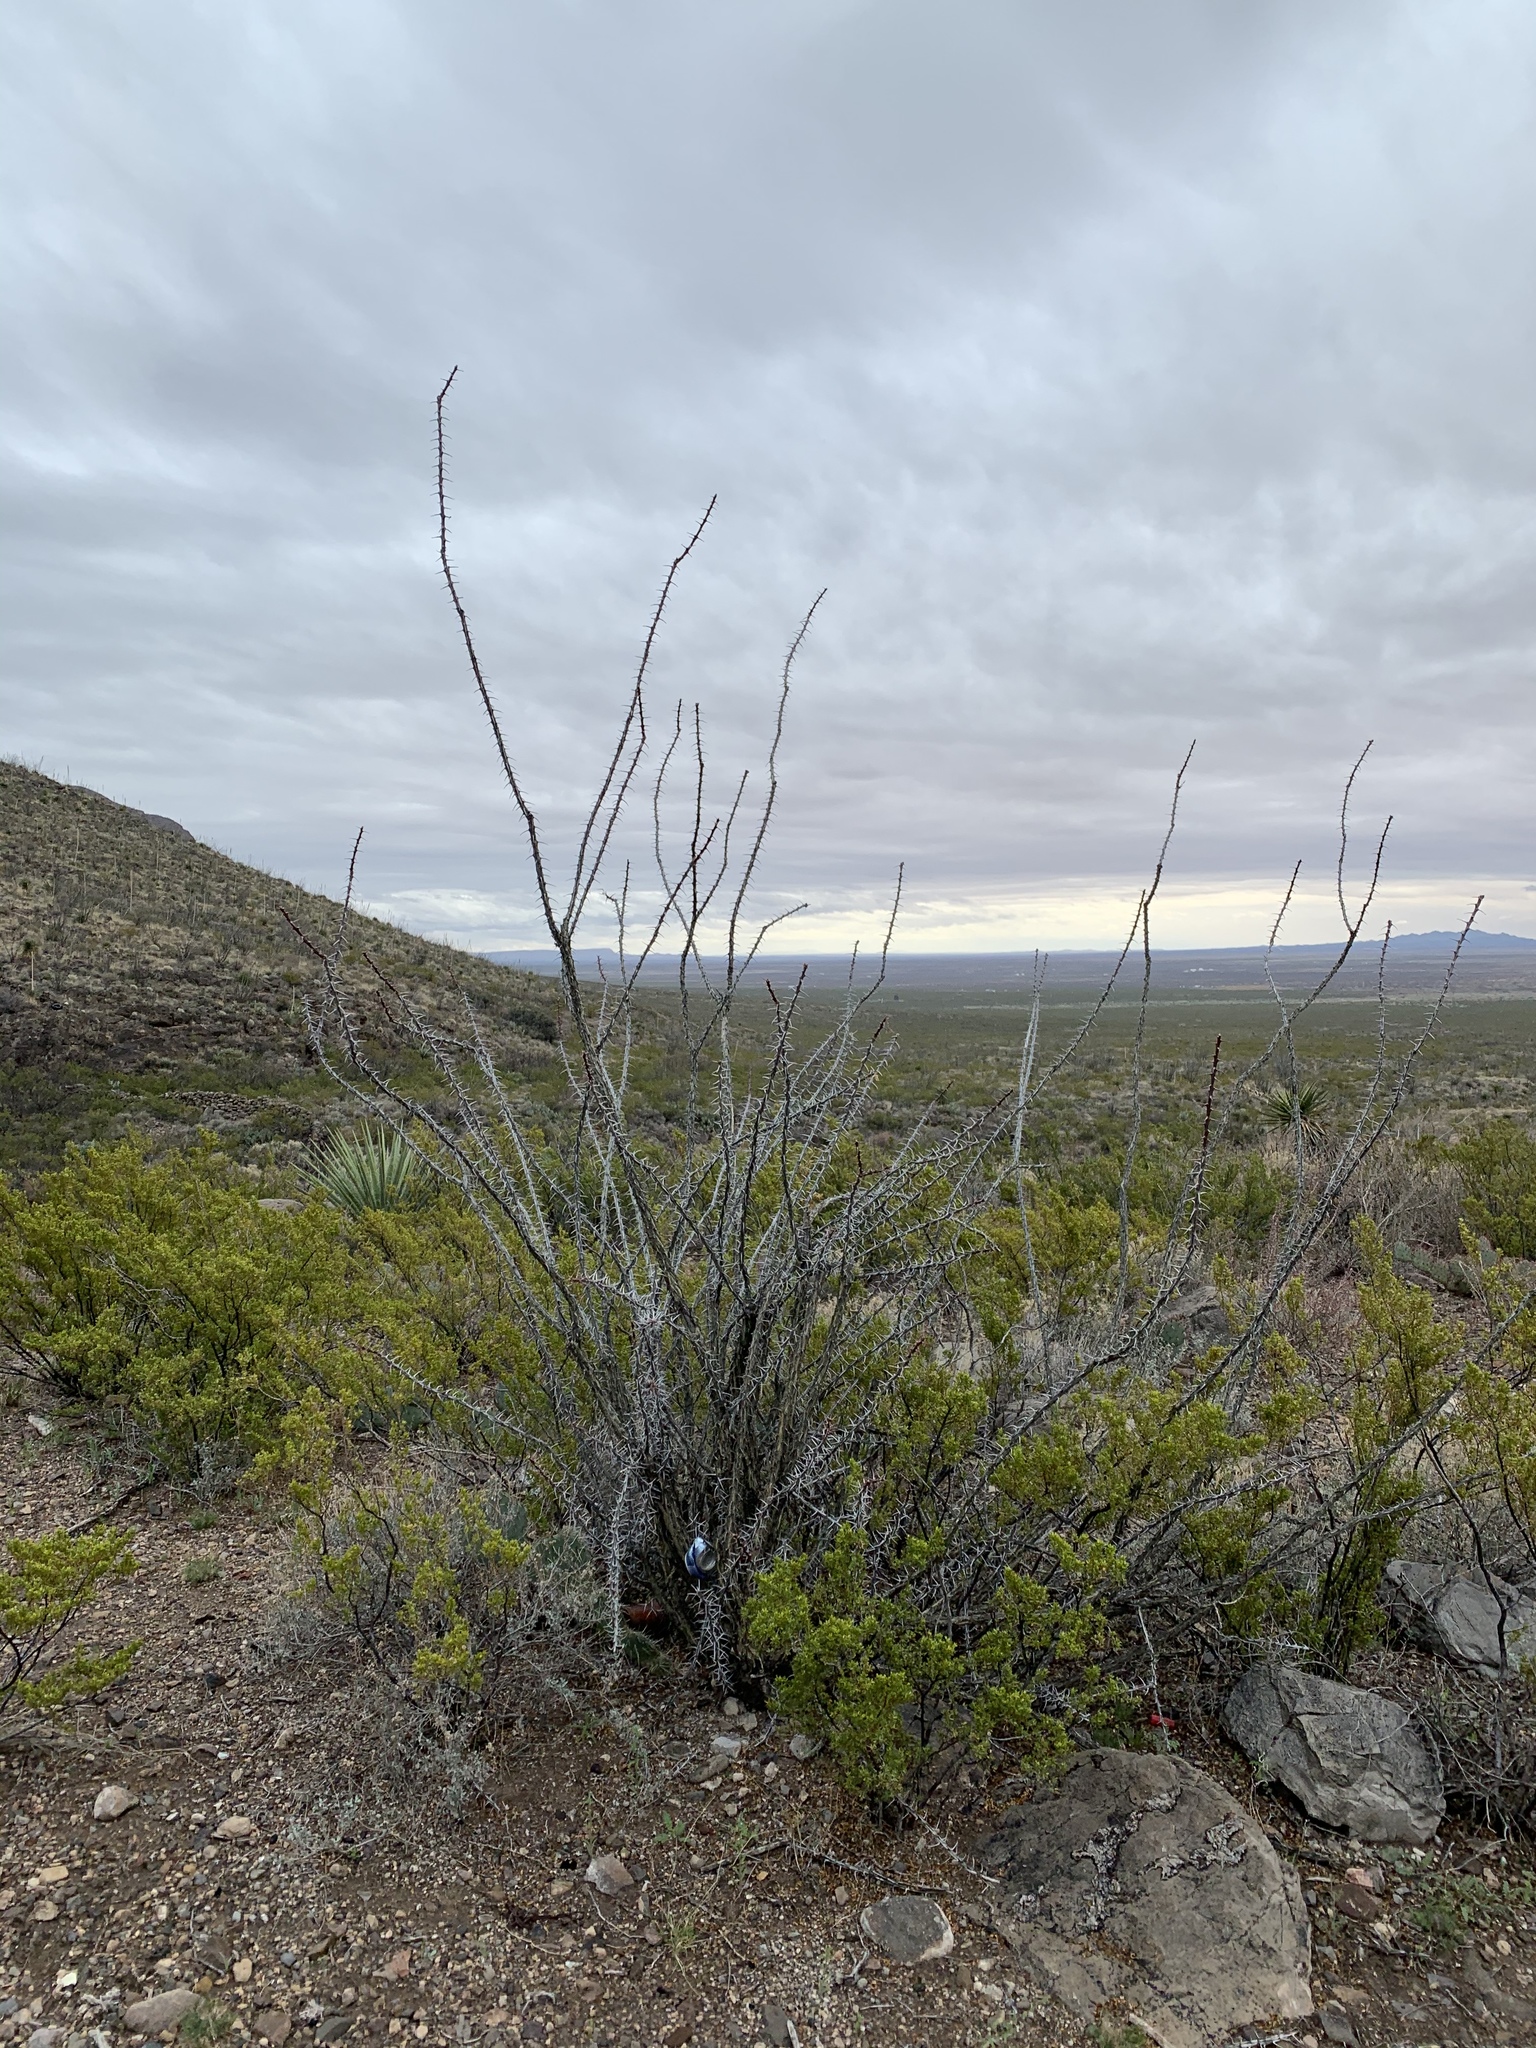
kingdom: Plantae
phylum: Tracheophyta
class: Magnoliopsida
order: Ericales
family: Fouquieriaceae
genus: Fouquieria
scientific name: Fouquieria splendens
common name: Vine-cactus
